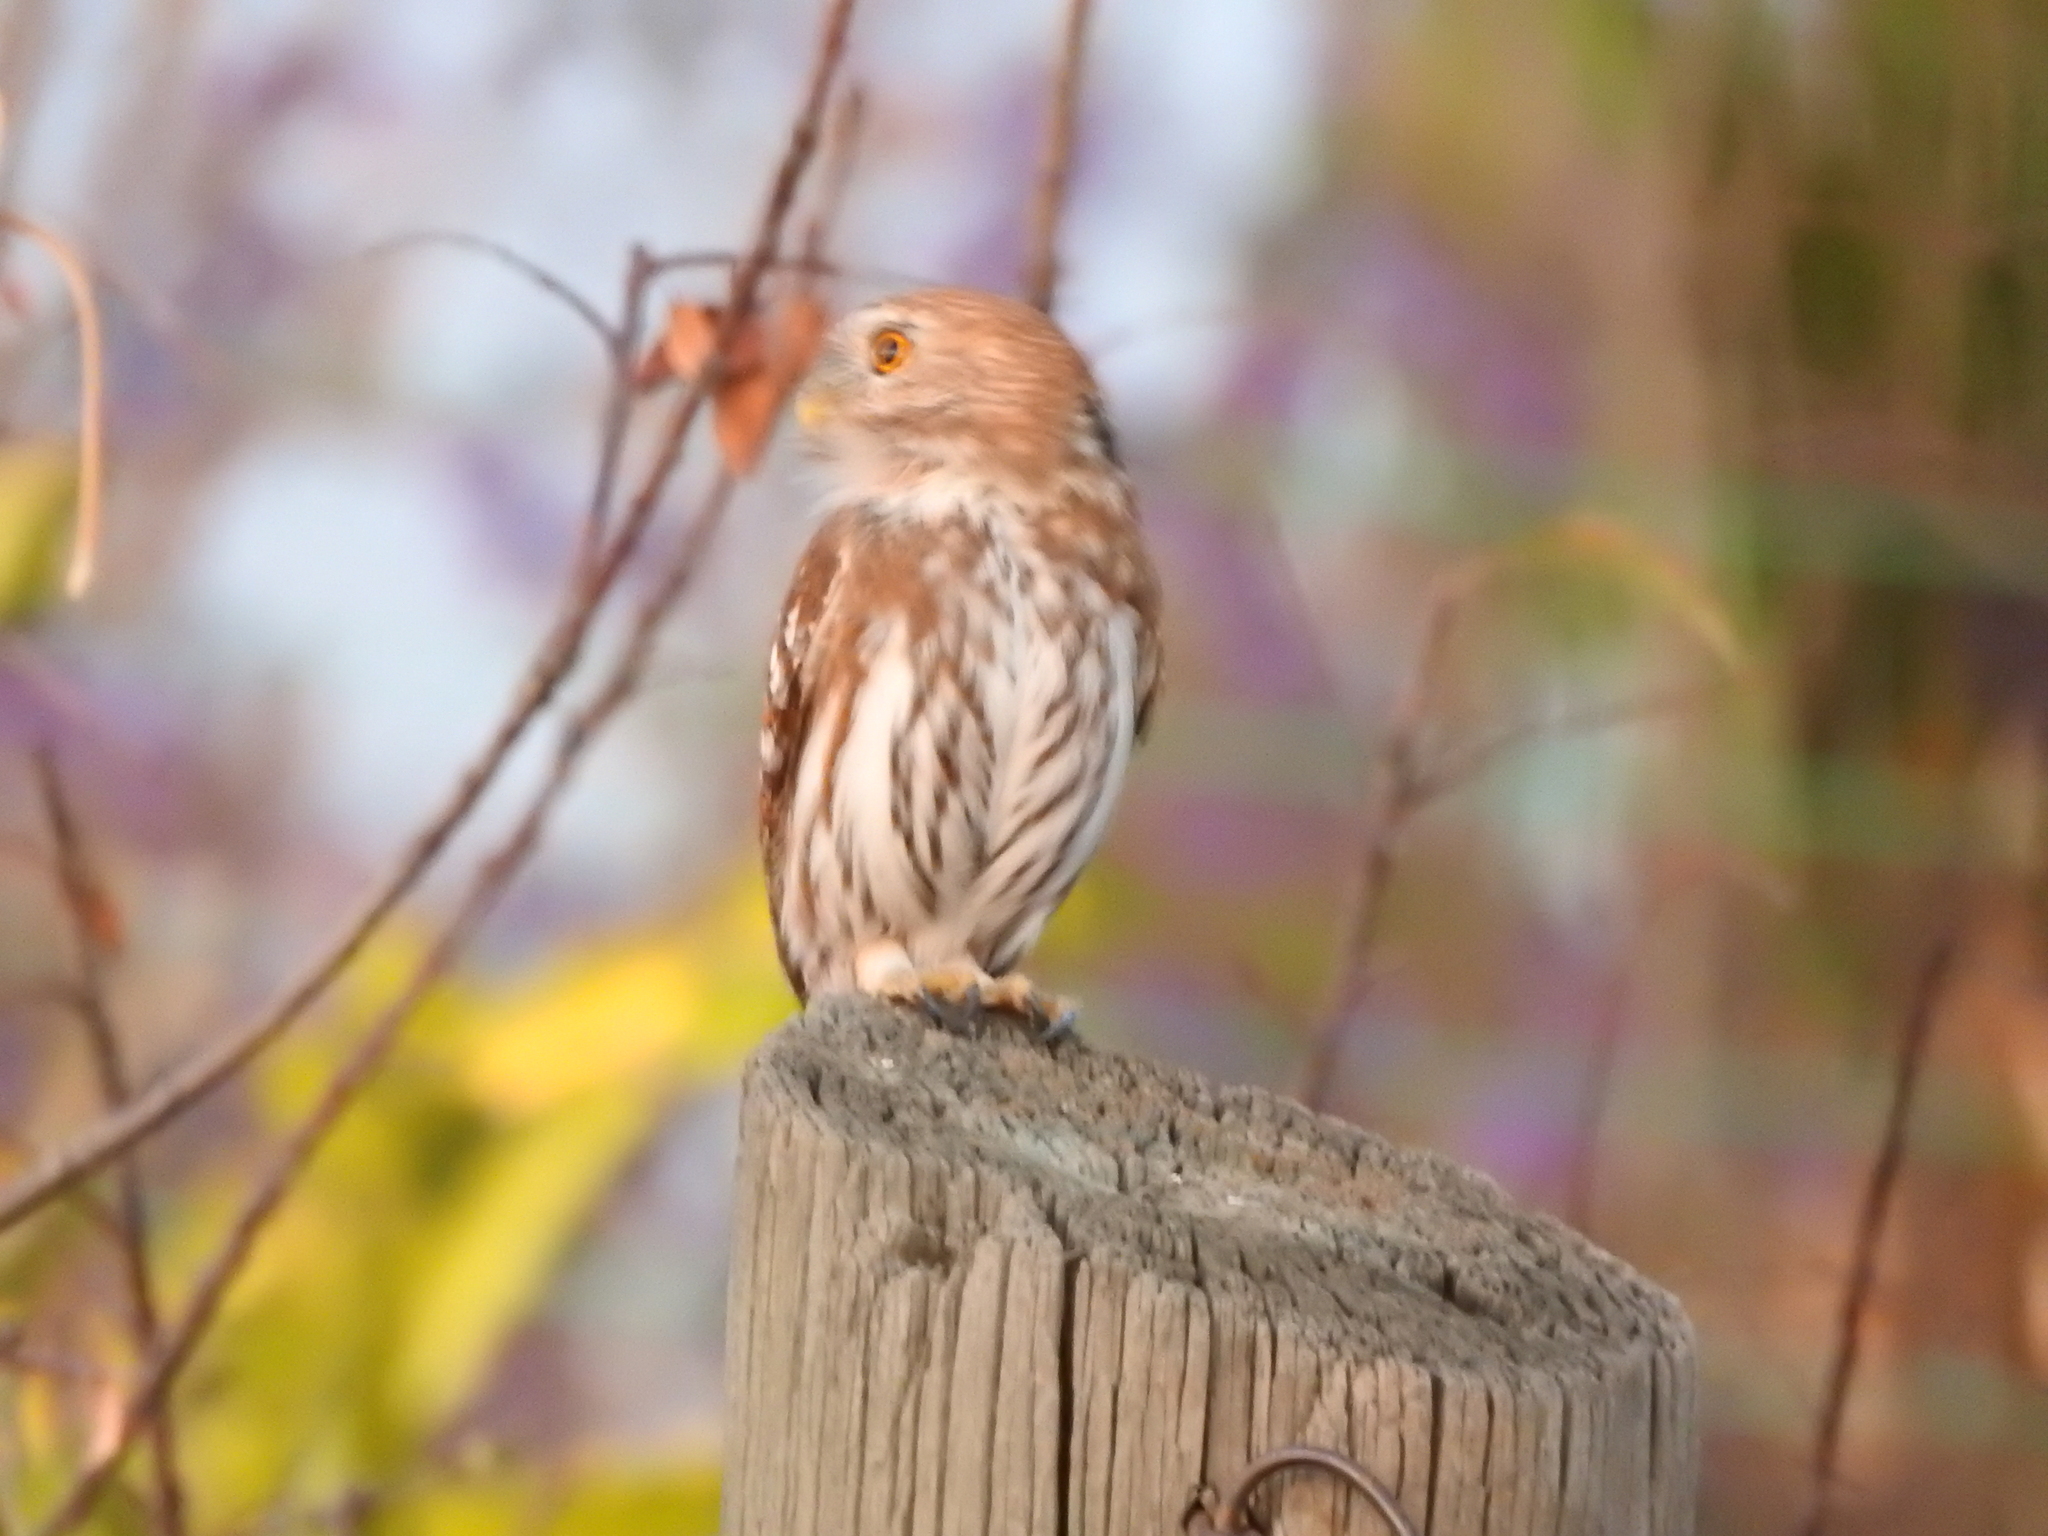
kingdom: Animalia
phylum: Chordata
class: Aves
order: Strigiformes
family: Strigidae
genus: Glaucidium
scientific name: Glaucidium brasilianum
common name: Ferruginous pygmy-owl
